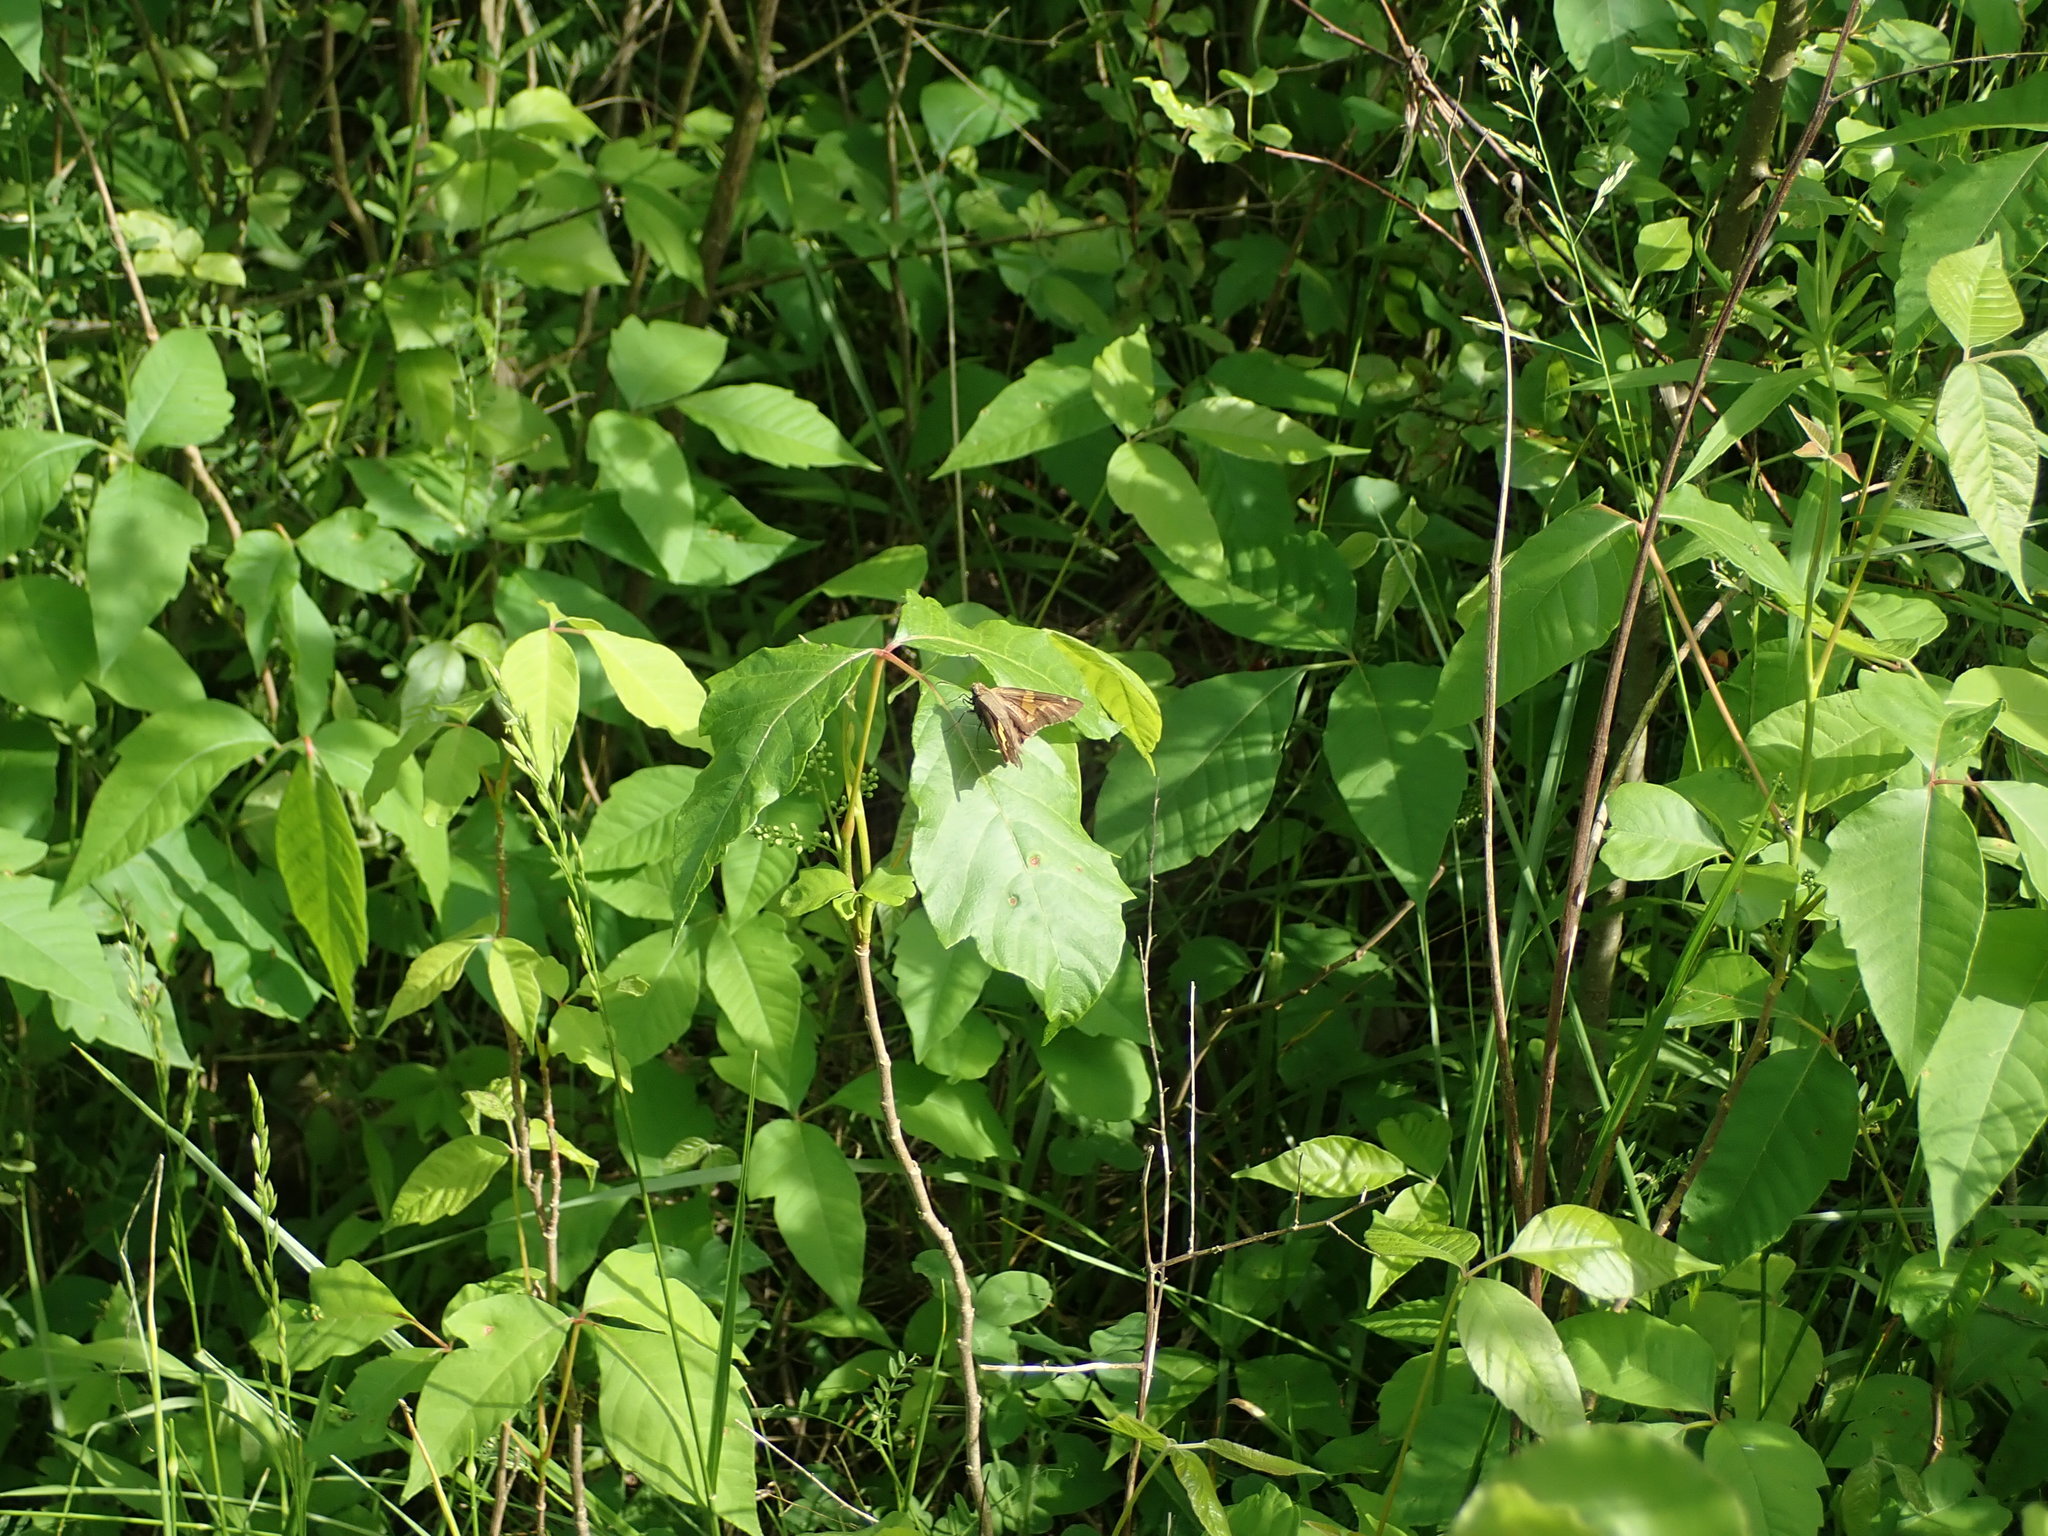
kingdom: Animalia
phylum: Arthropoda
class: Insecta
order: Lepidoptera
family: Hesperiidae
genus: Epargyreus
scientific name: Epargyreus clarus
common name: Silver-spotted skipper
